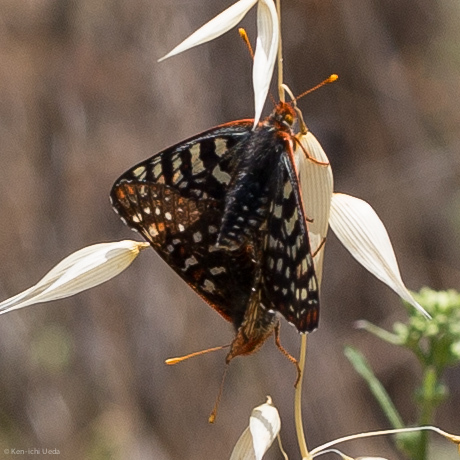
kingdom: Animalia
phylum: Arthropoda
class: Insecta
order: Lepidoptera
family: Nymphalidae
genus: Occidryas
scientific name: Occidryas chalcedona
